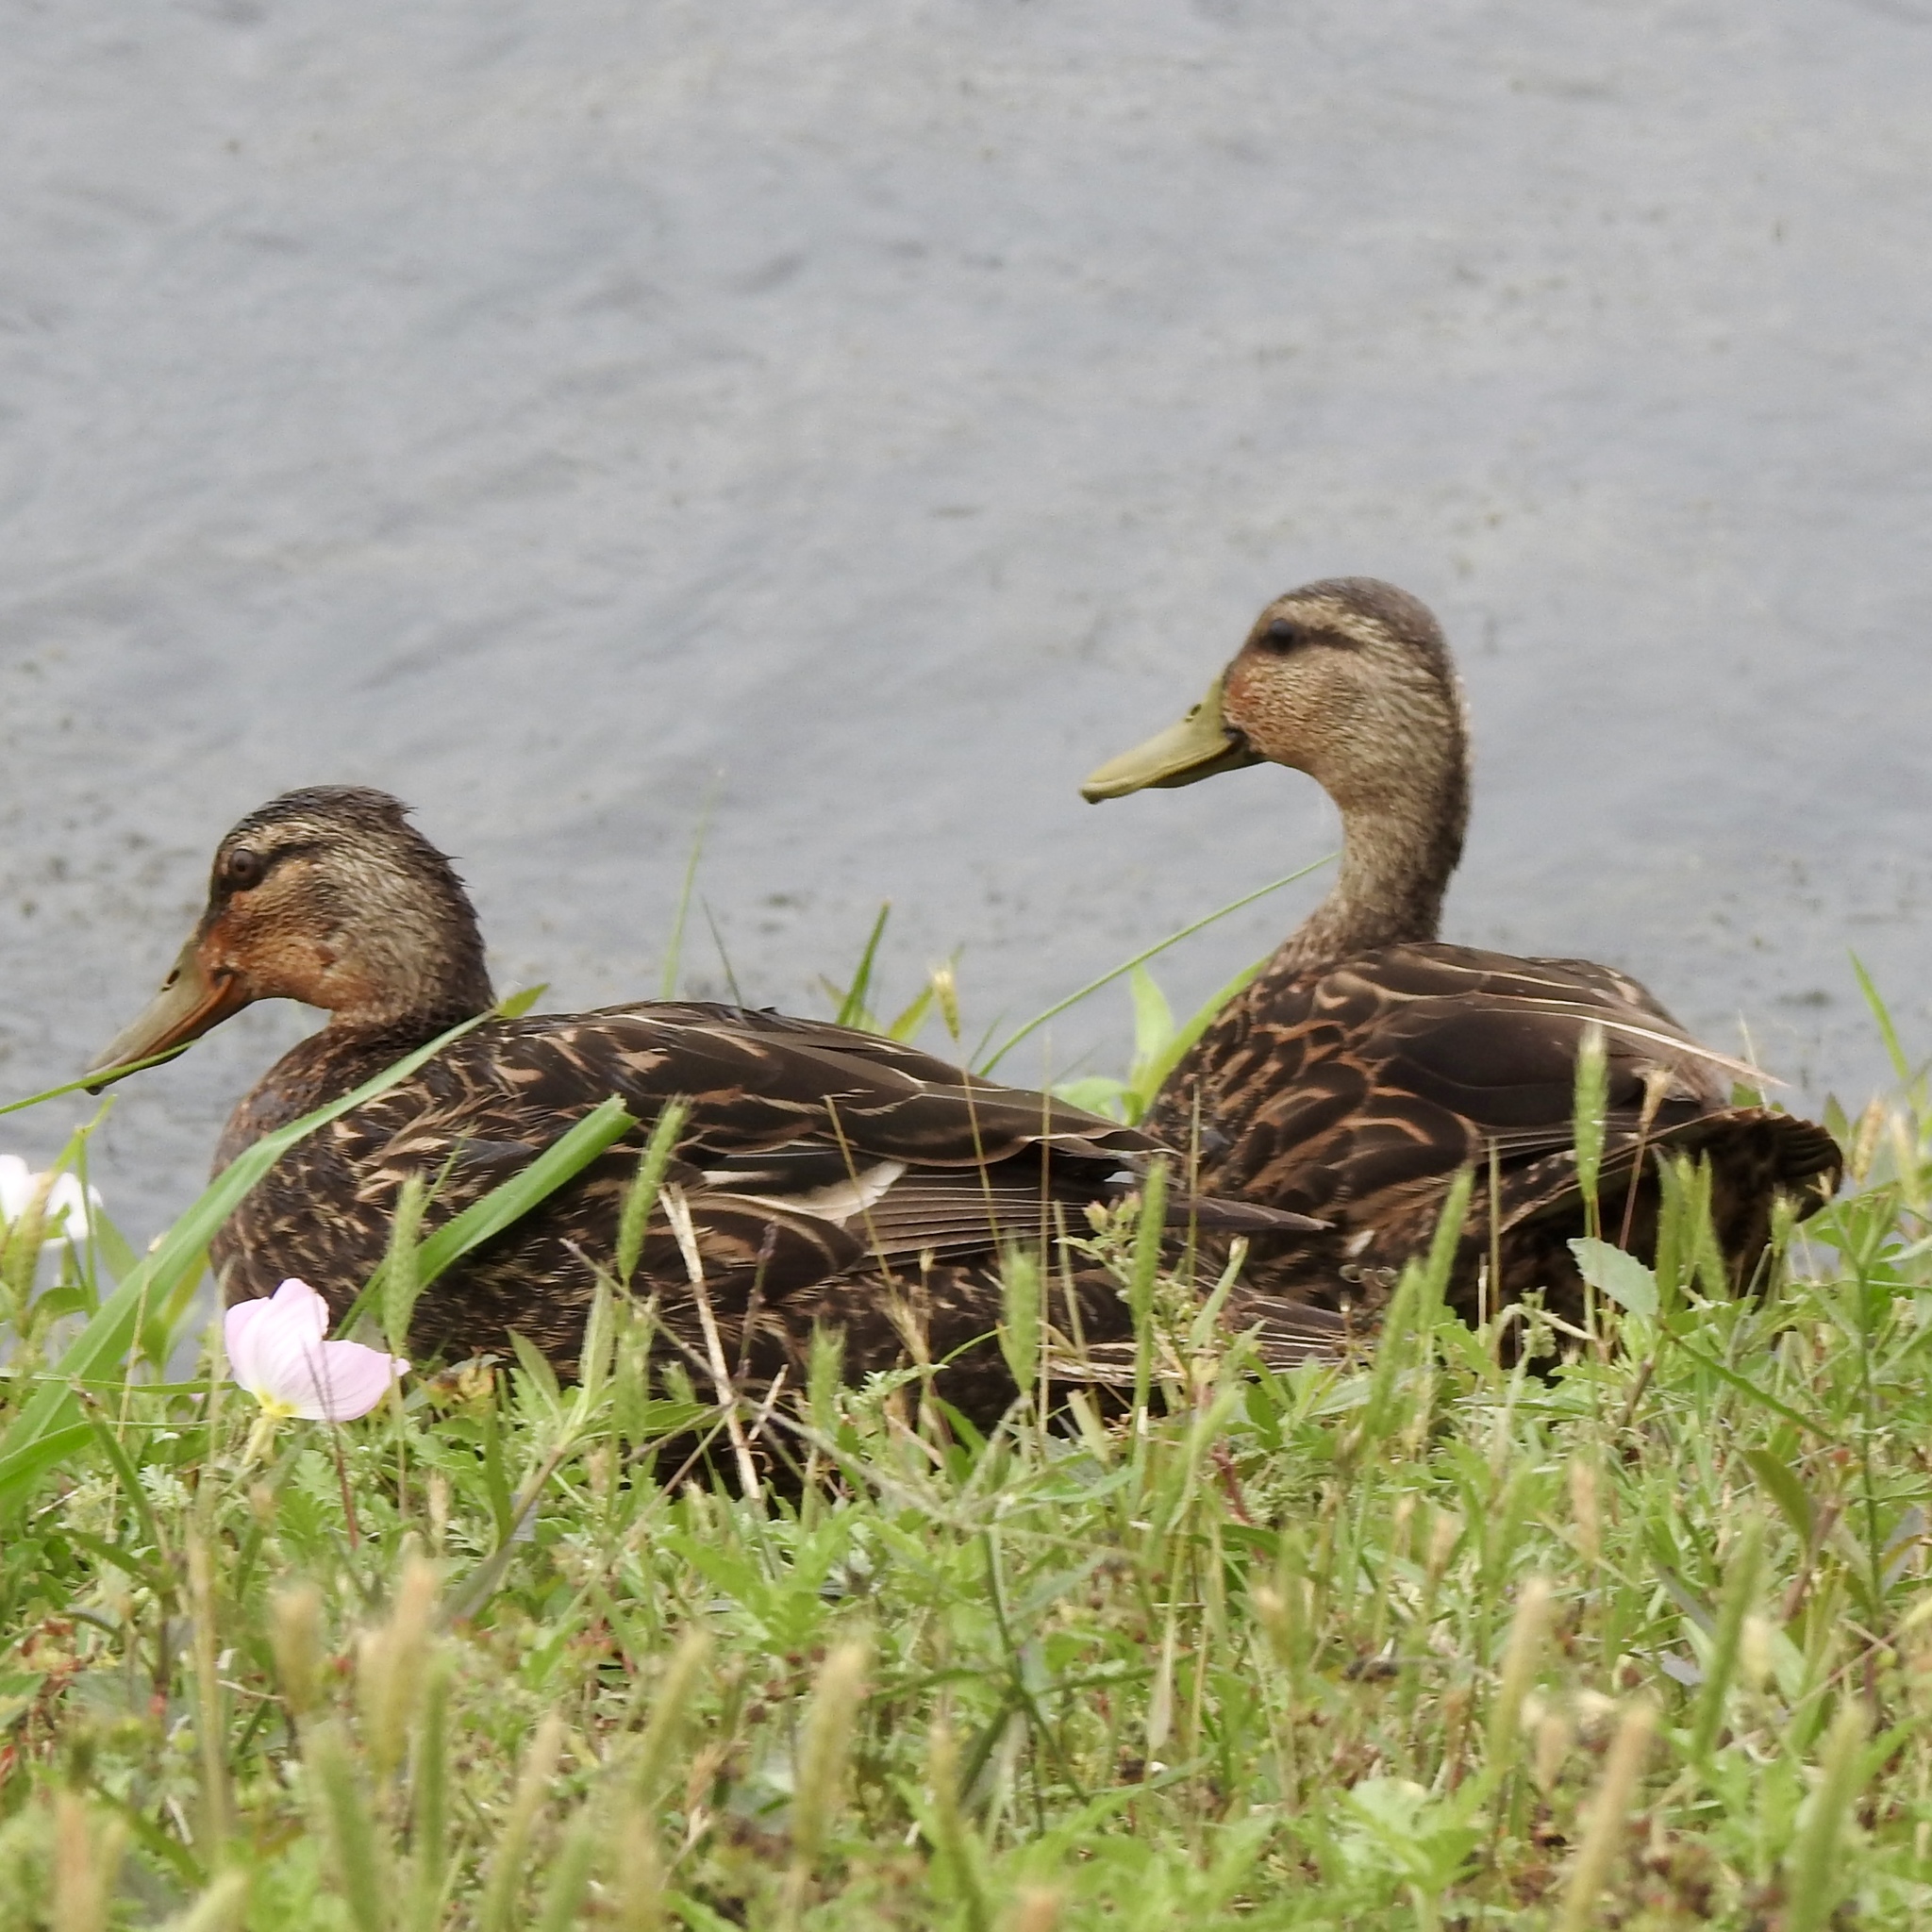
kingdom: Animalia
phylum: Chordata
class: Aves
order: Anseriformes
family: Anatidae
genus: Anas
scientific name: Anas fulvigula
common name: Mottled duck
